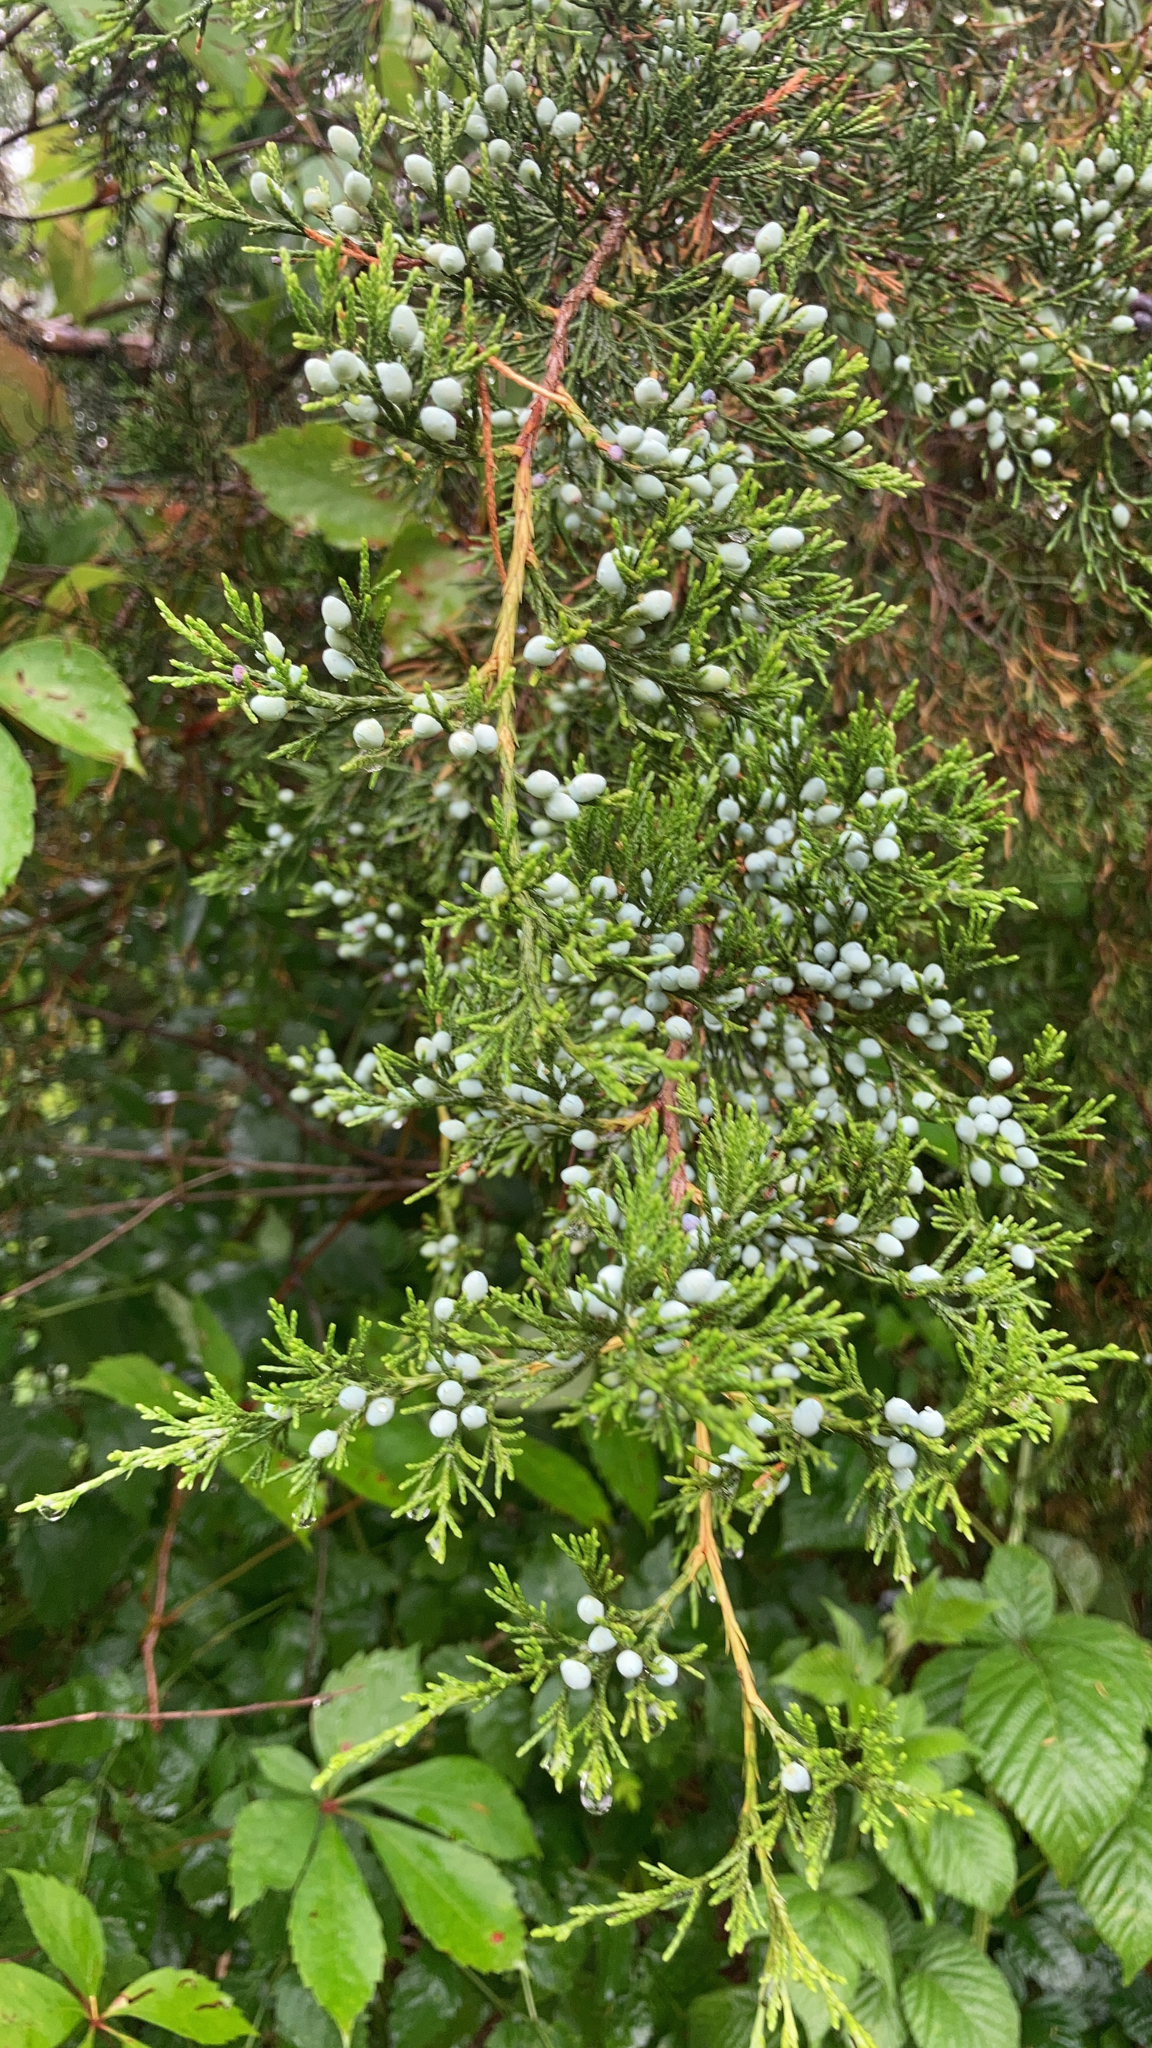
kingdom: Plantae
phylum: Tracheophyta
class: Pinopsida
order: Pinales
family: Cupressaceae
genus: Juniperus
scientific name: Juniperus virginiana
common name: Red juniper
